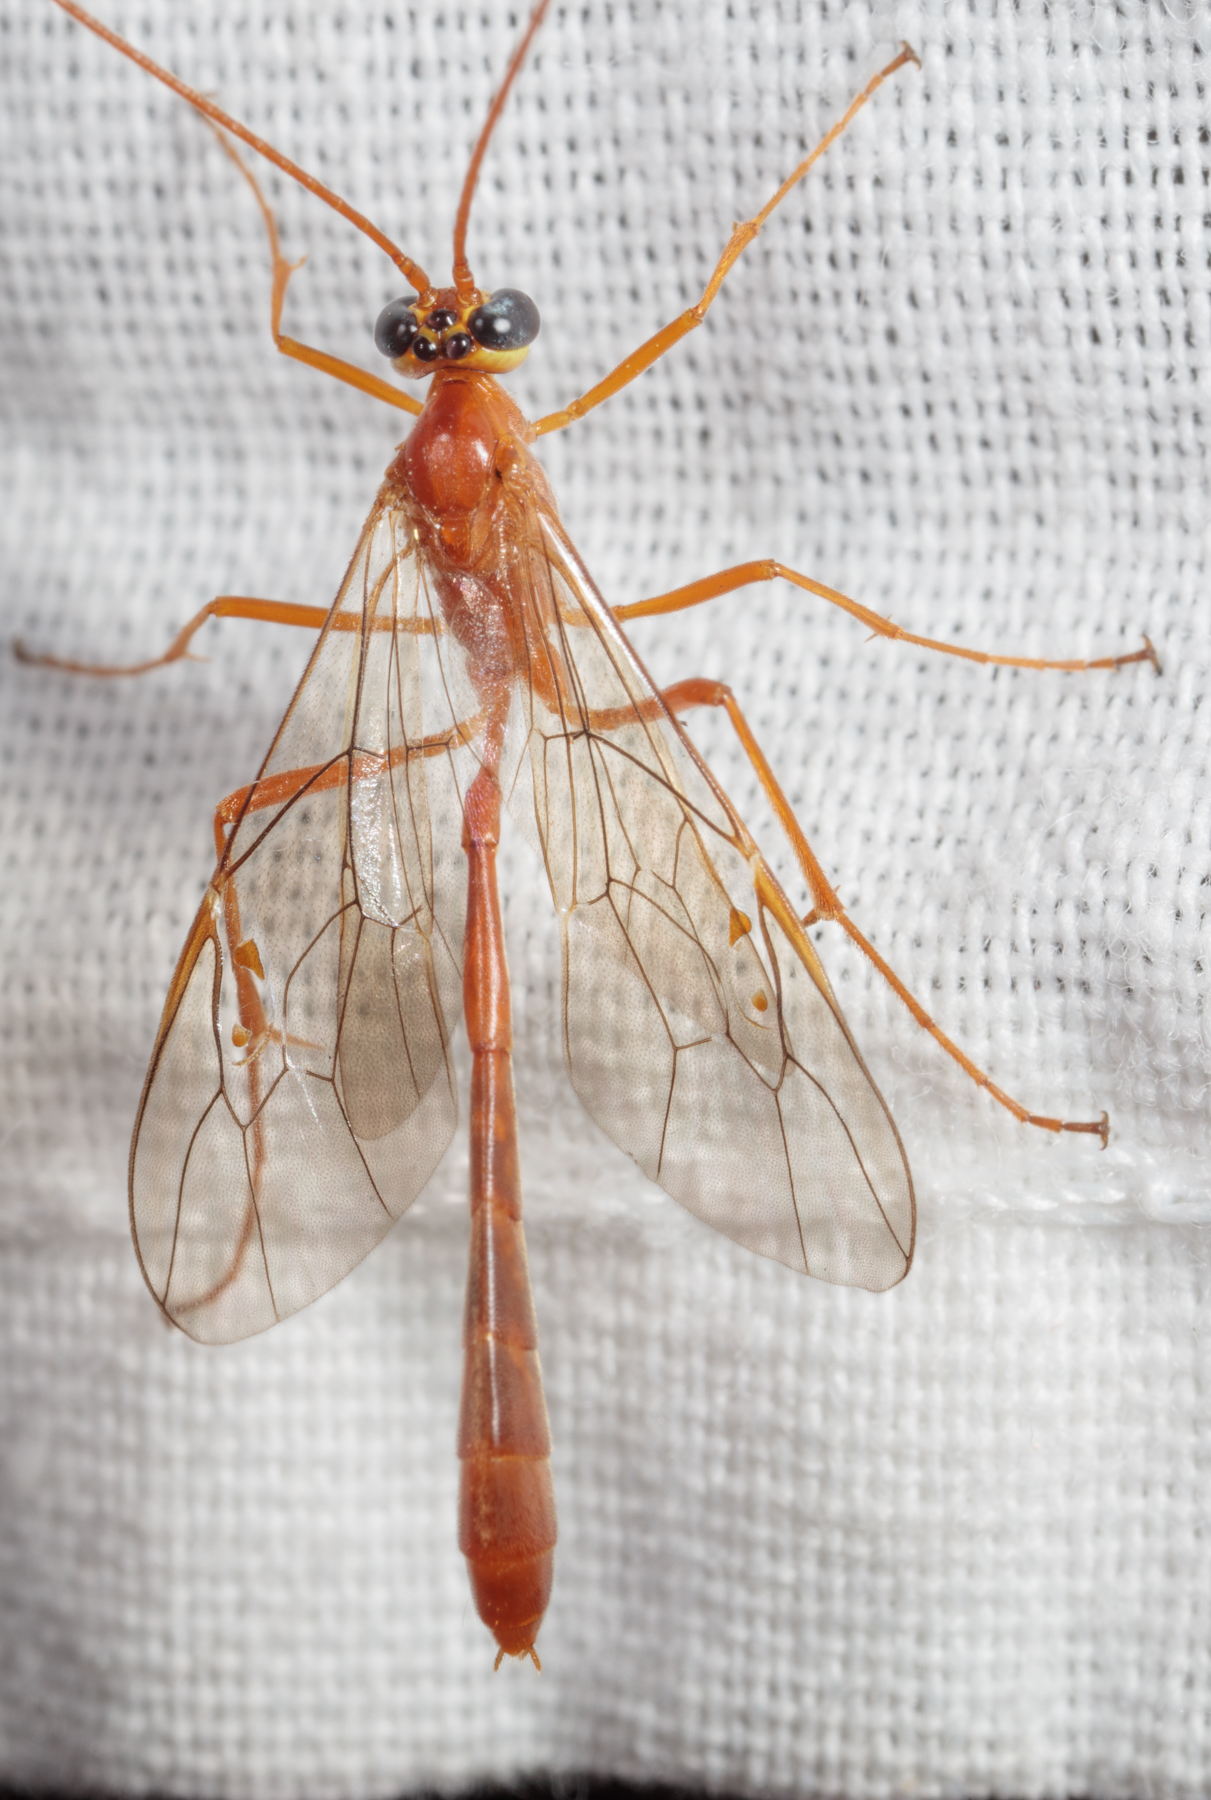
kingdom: Animalia
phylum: Arthropoda
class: Insecta
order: Hymenoptera
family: Ichneumonidae
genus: Enicospilus
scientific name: Enicospilus purgatus
